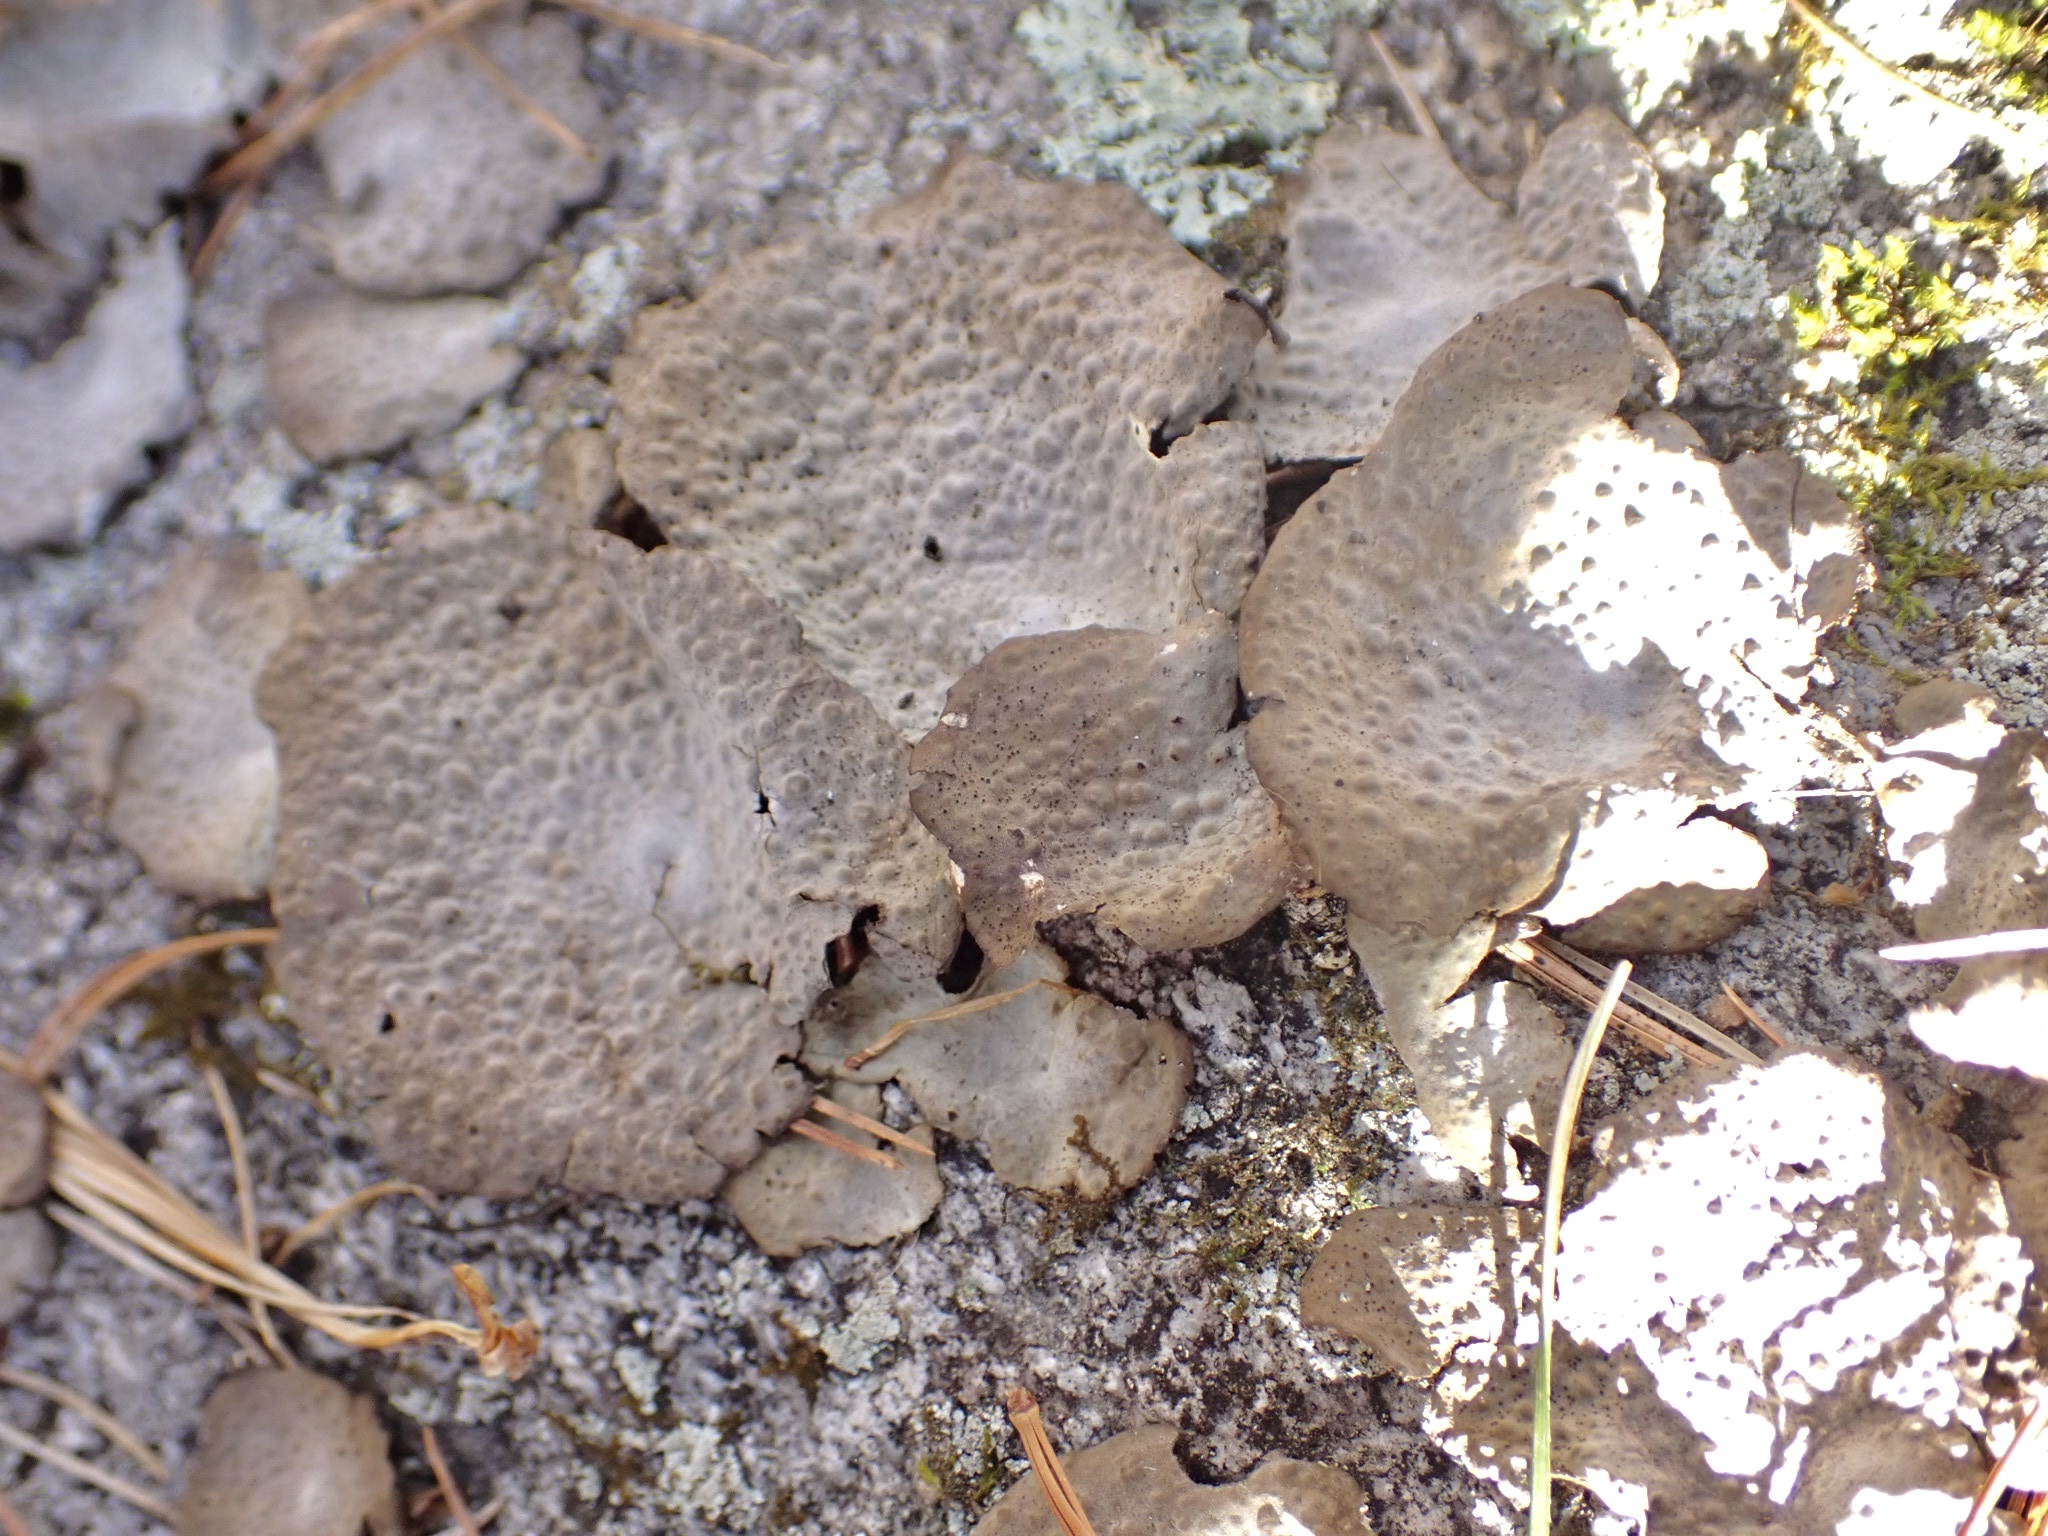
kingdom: Fungi
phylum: Ascomycota
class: Lecanoromycetes
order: Umbilicariales
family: Umbilicariaceae
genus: Lasallia
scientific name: Lasallia papulosa
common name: Common toadskin lichen
